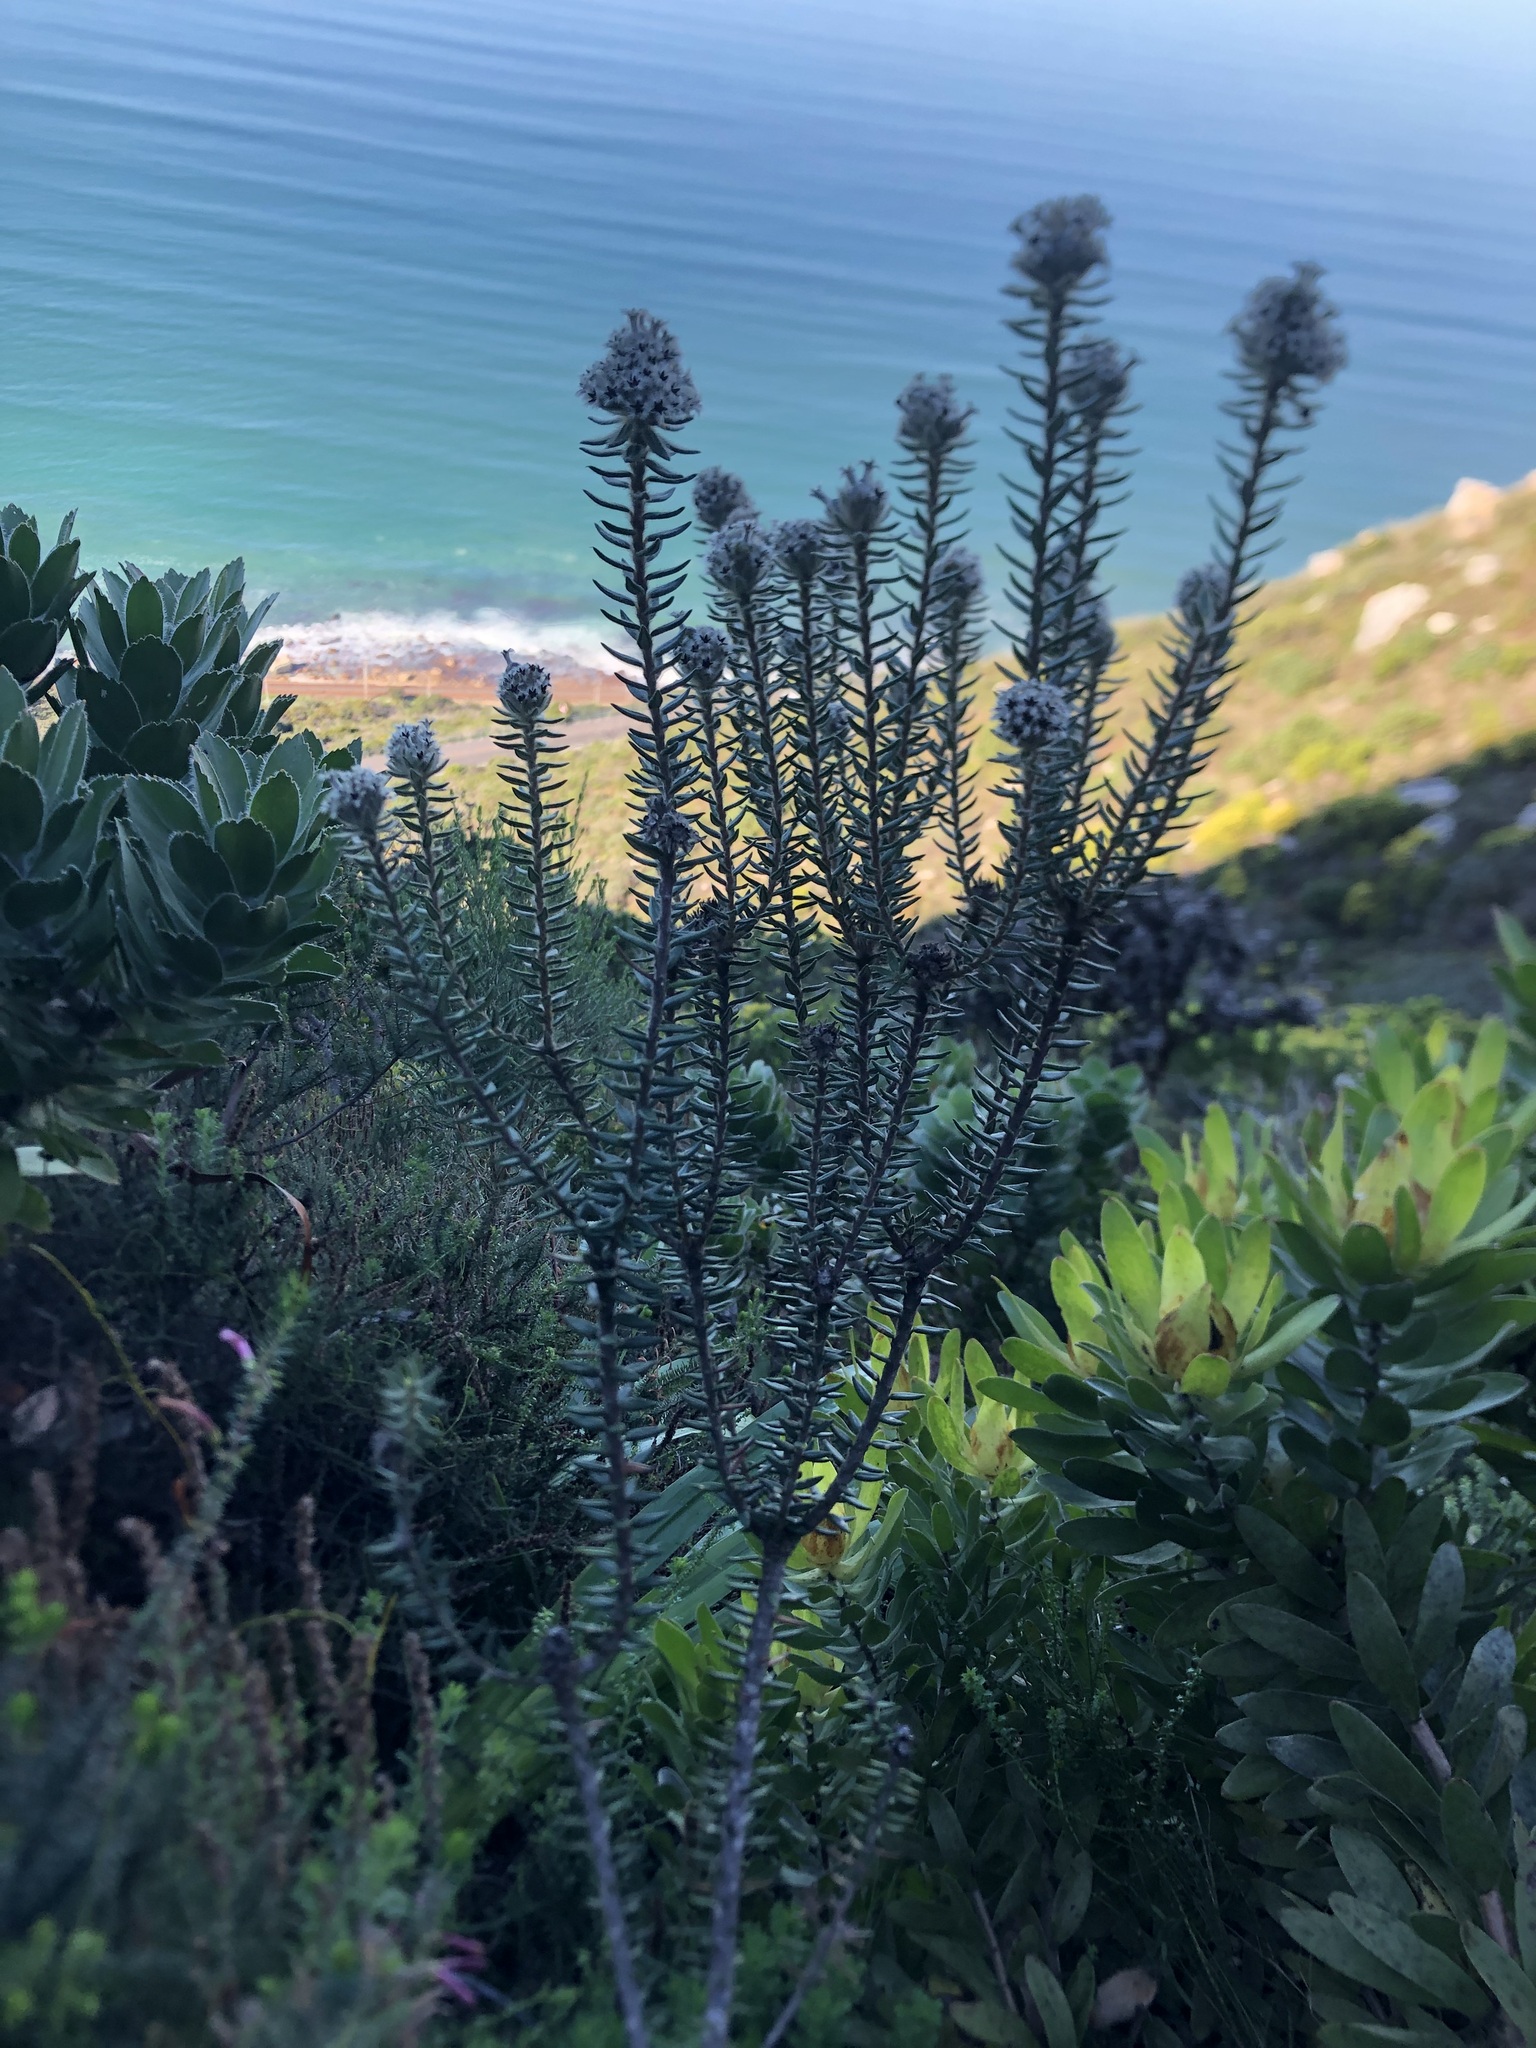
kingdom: Plantae
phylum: Tracheophyta
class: Magnoliopsida
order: Rosales
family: Rhamnaceae
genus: Phylica
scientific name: Phylica strigosa
